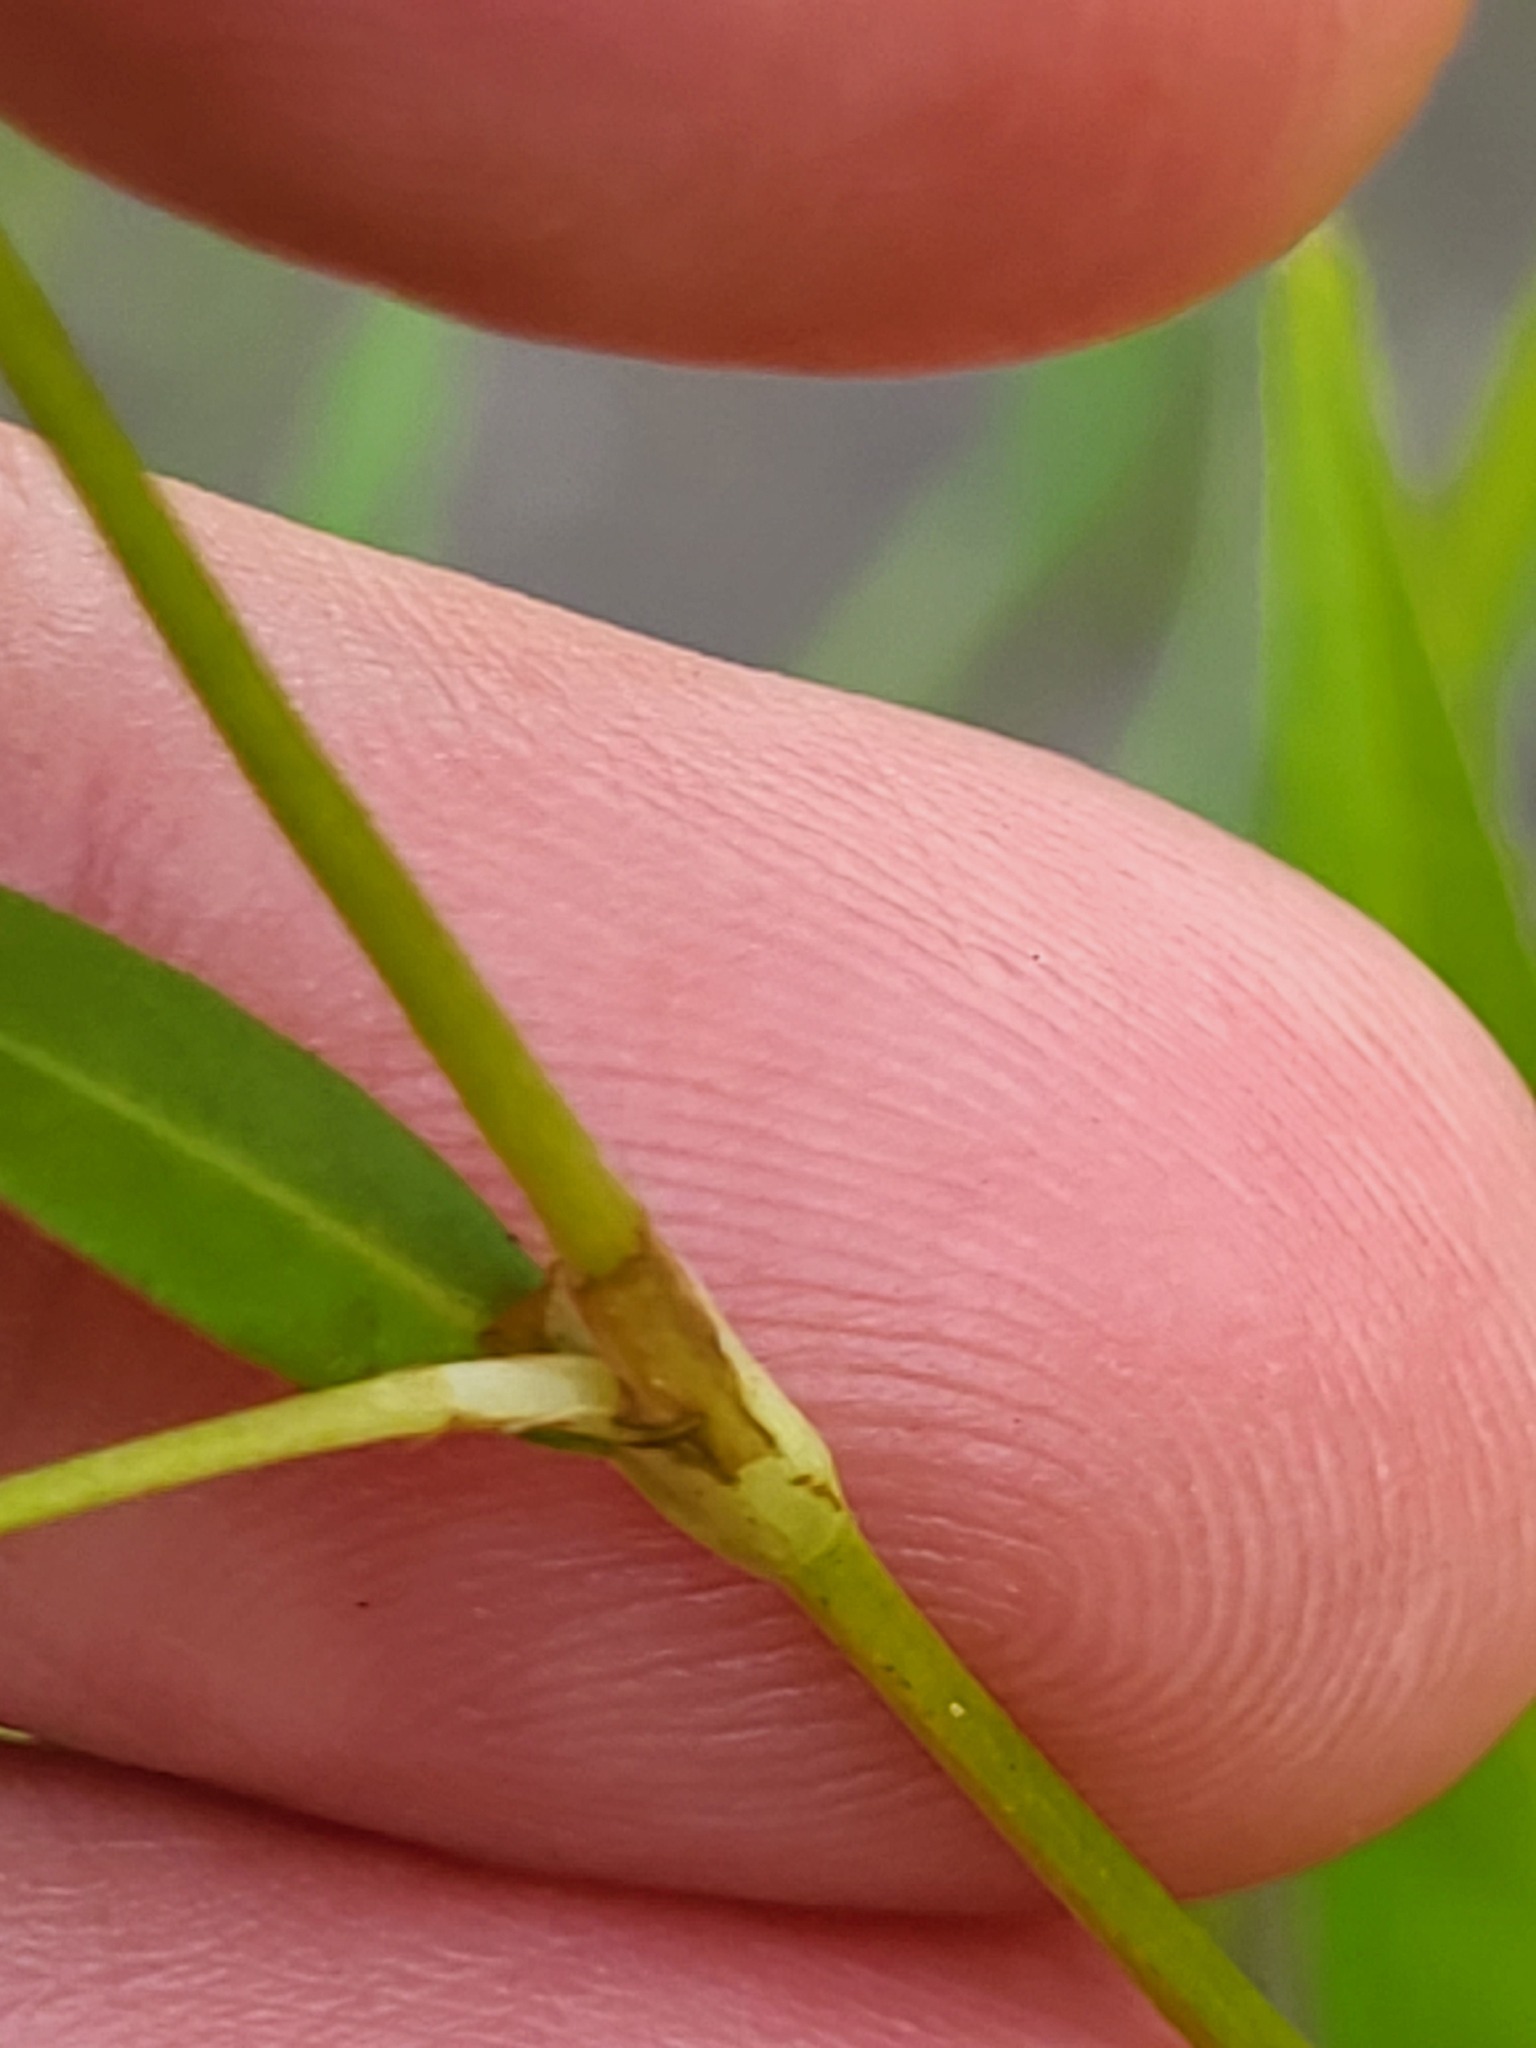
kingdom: Plantae
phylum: Tracheophyta
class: Magnoliopsida
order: Caryophyllales
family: Polygonaceae
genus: Persicaria
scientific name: Persicaria punctata
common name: Dotted smartweed
